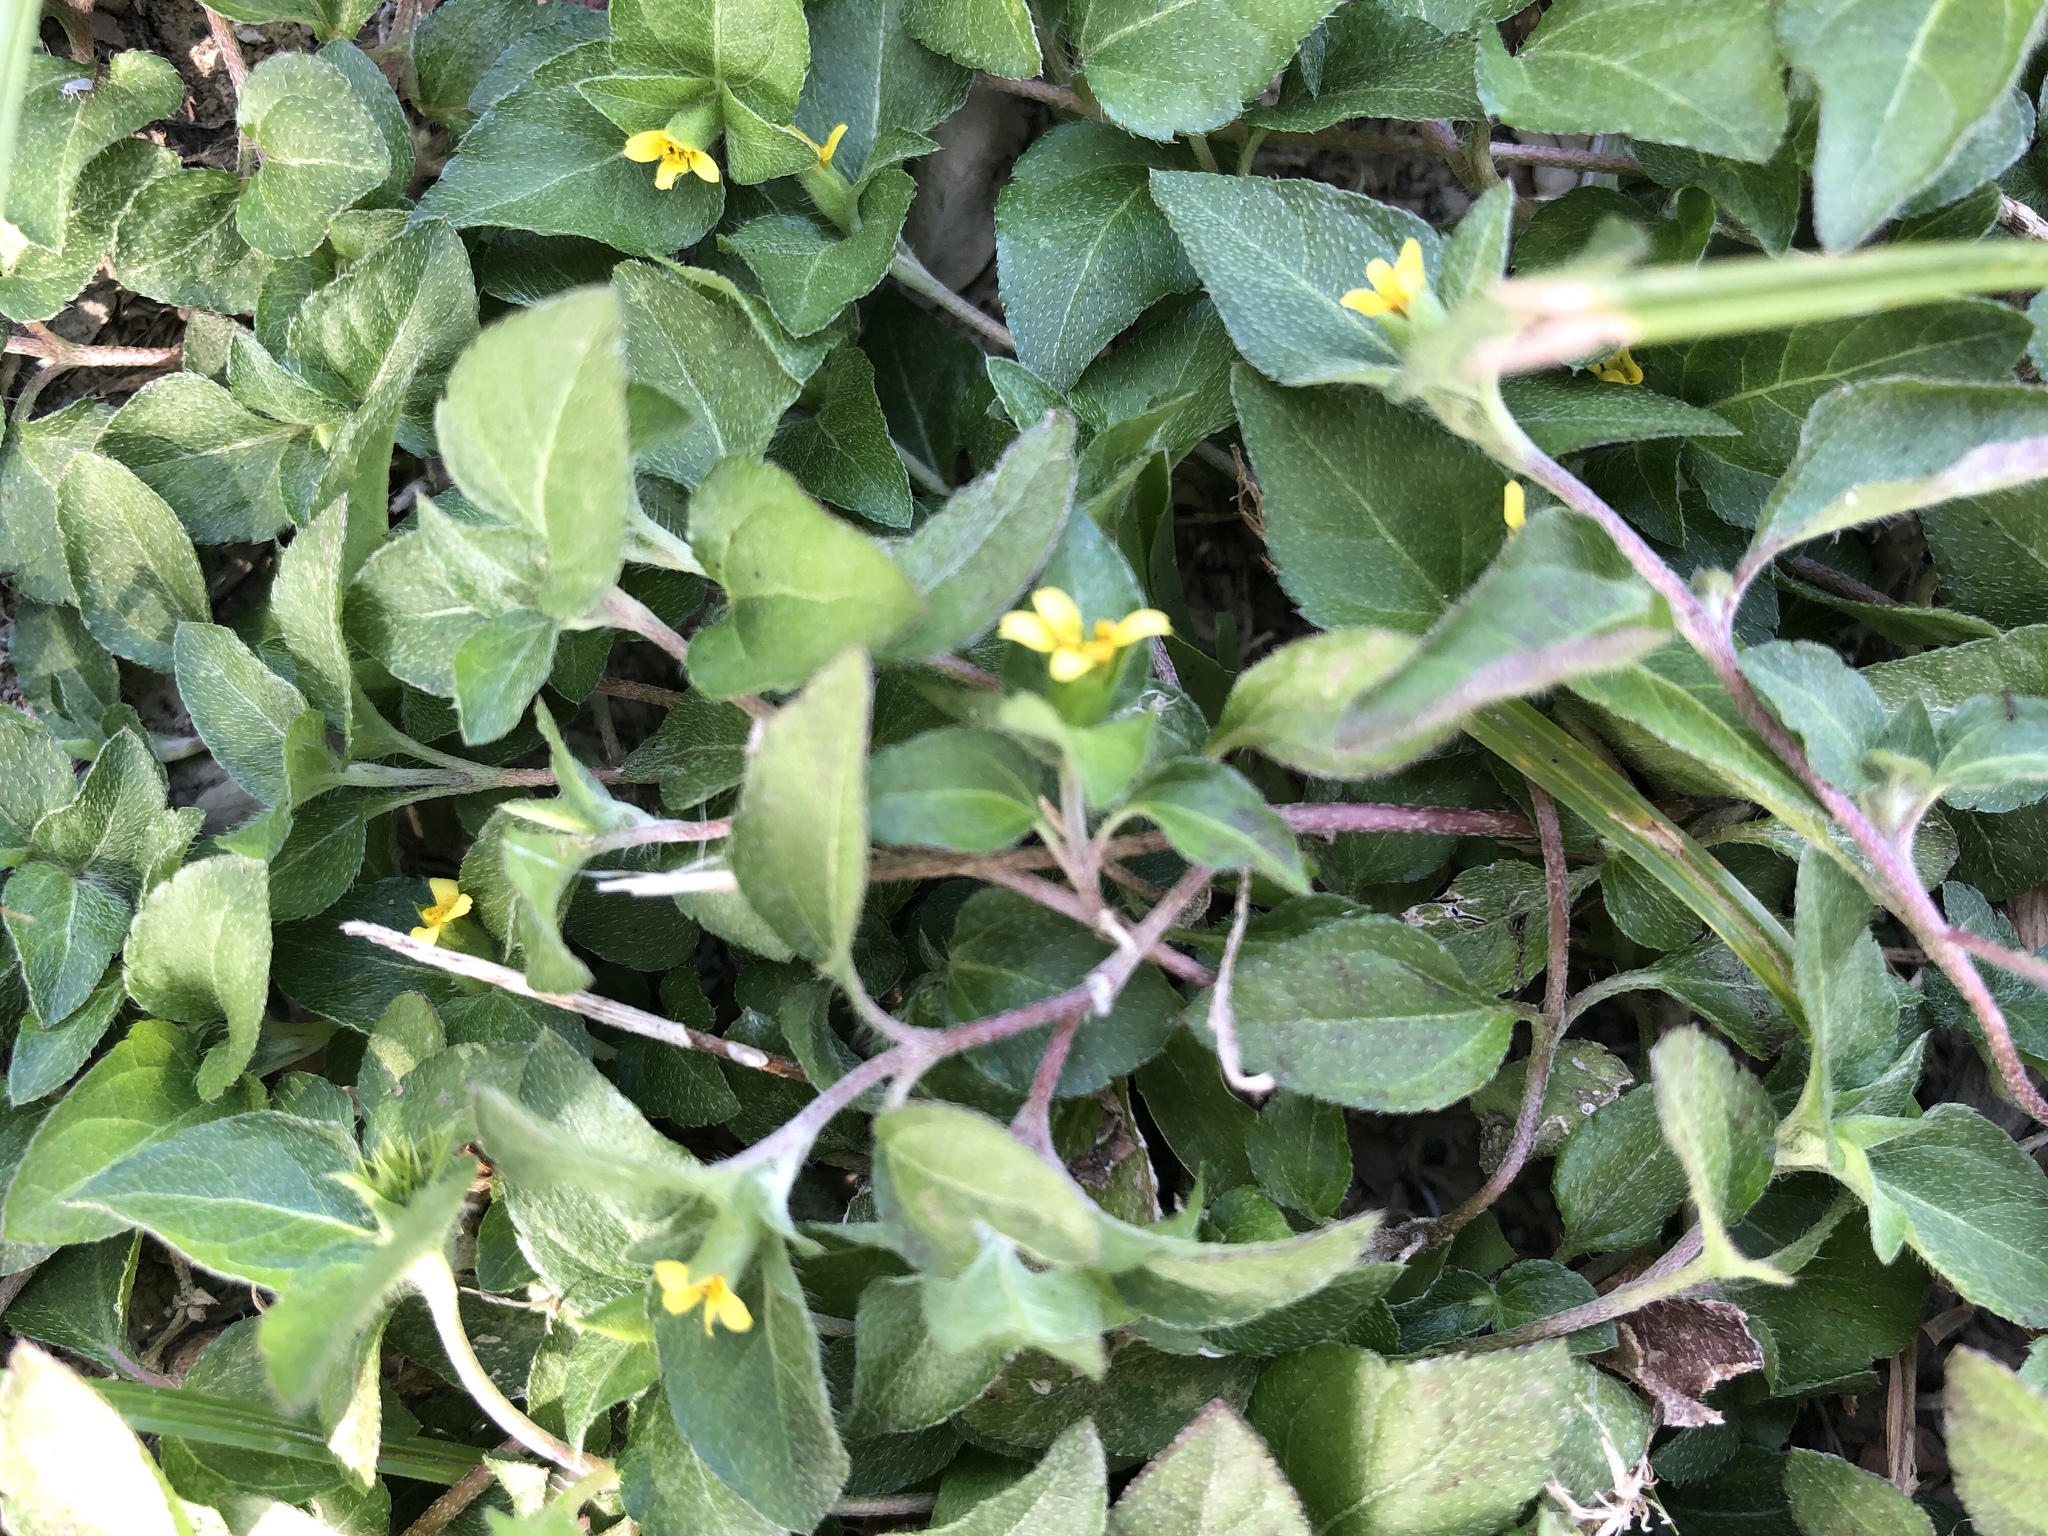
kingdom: Plantae
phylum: Tracheophyta
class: Magnoliopsida
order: Asterales
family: Asteraceae
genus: Calyptocarpus
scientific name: Calyptocarpus vialis
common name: Straggler daisy
